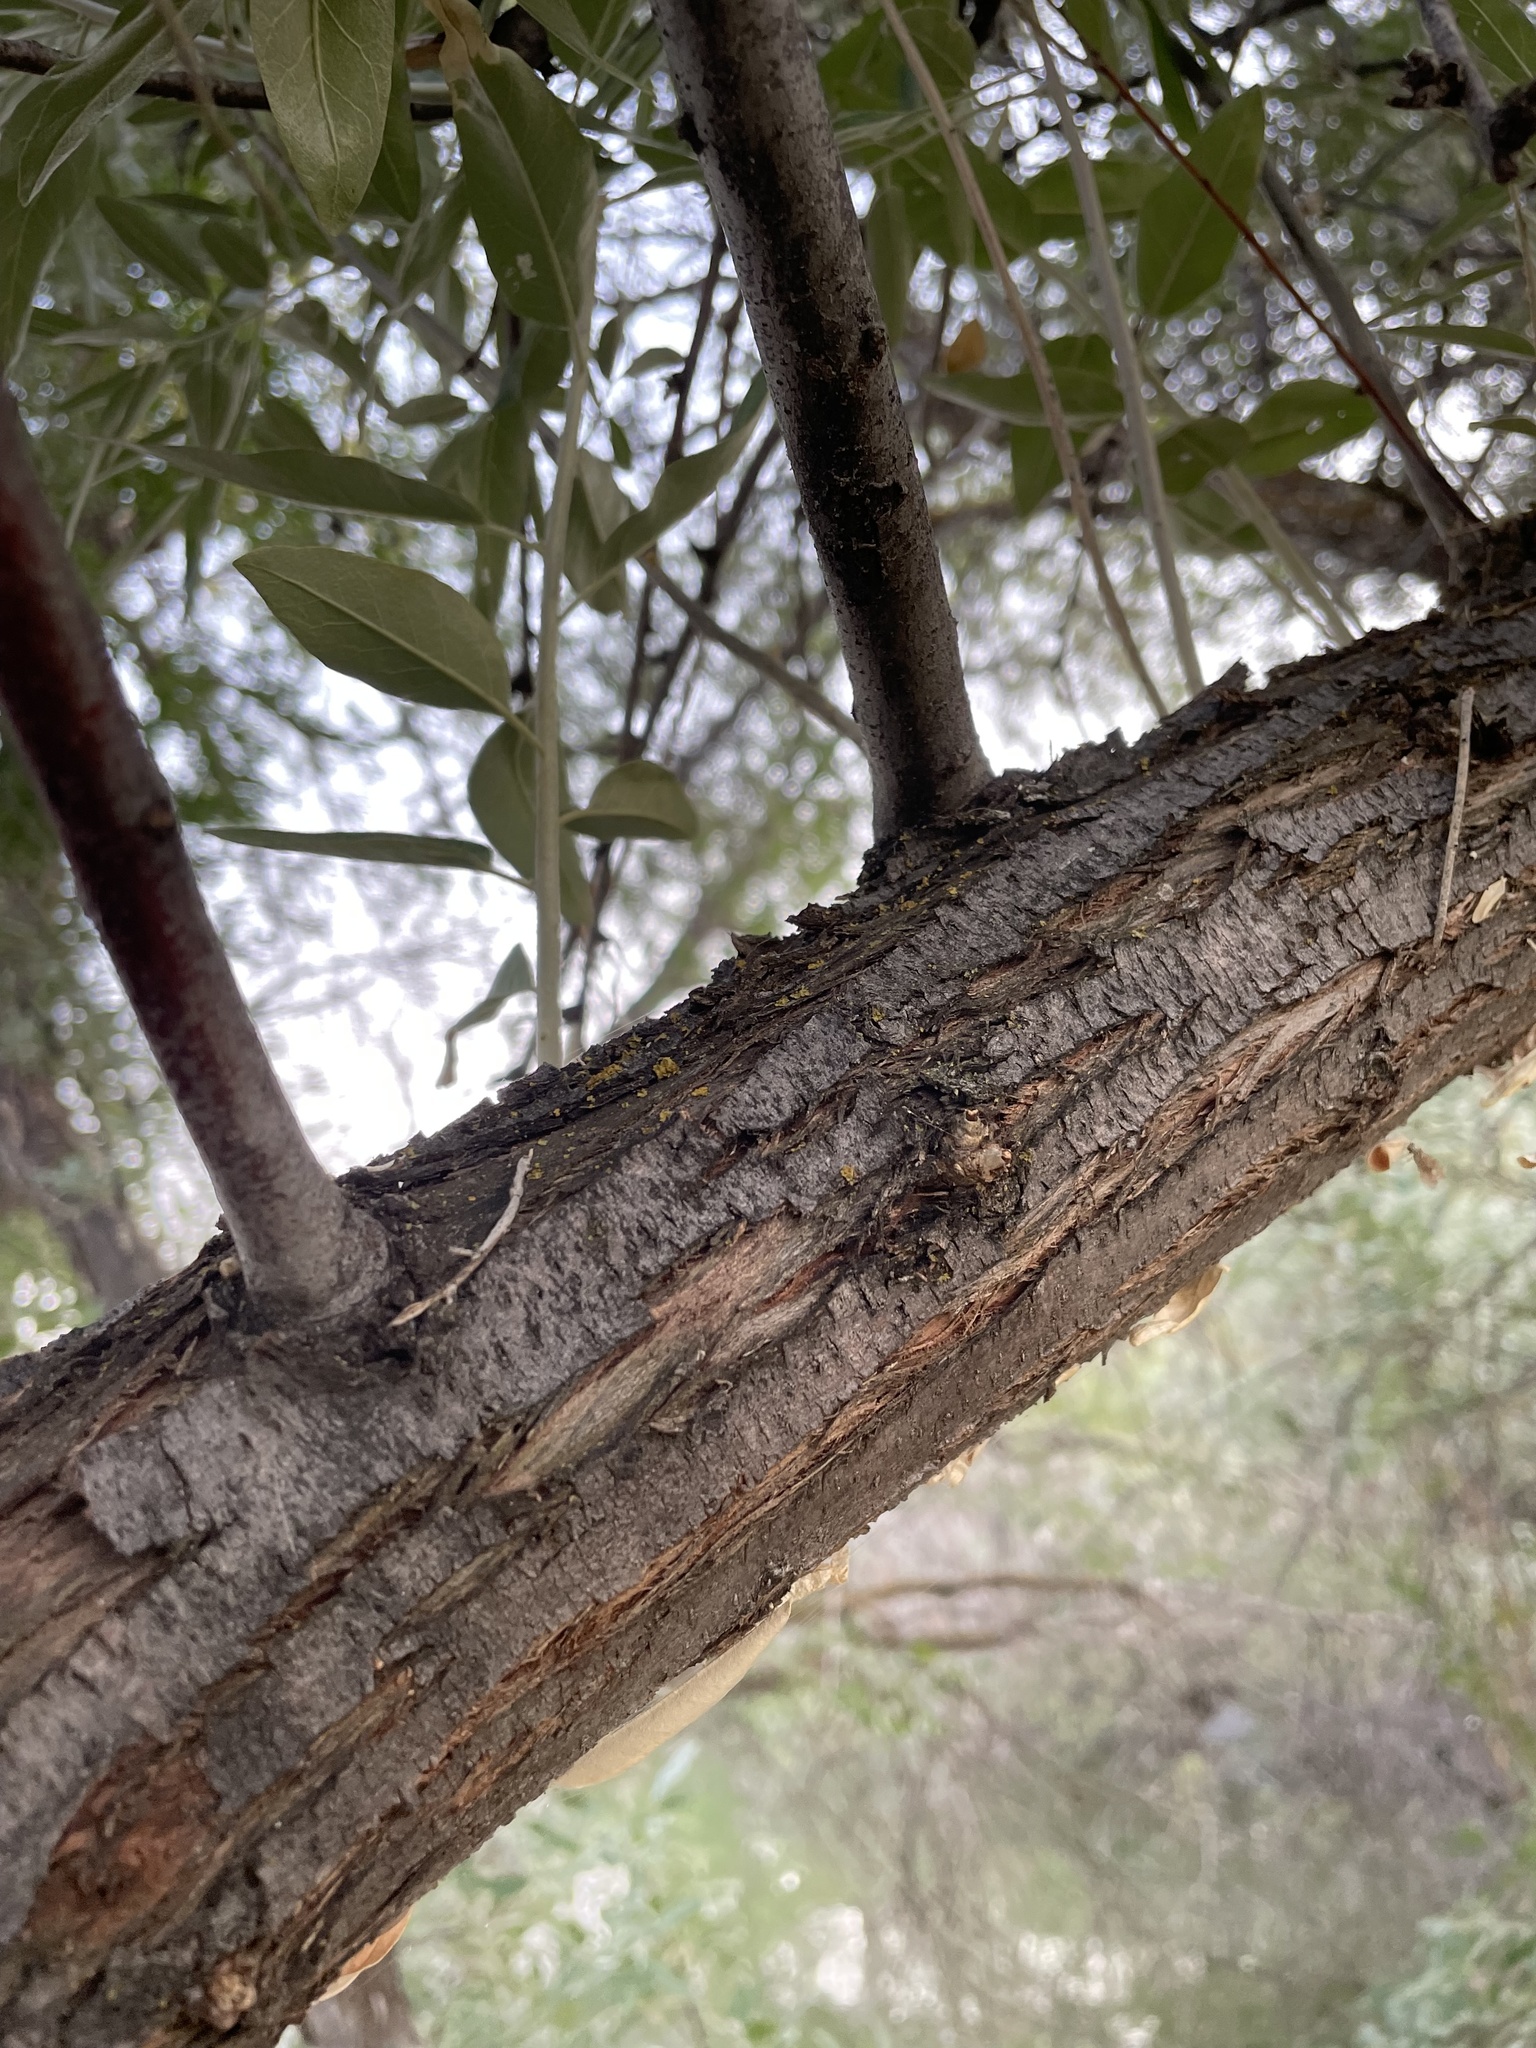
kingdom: Plantae
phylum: Tracheophyta
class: Magnoliopsida
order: Rosales
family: Elaeagnaceae
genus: Elaeagnus
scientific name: Elaeagnus angustifolia
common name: Russian olive
